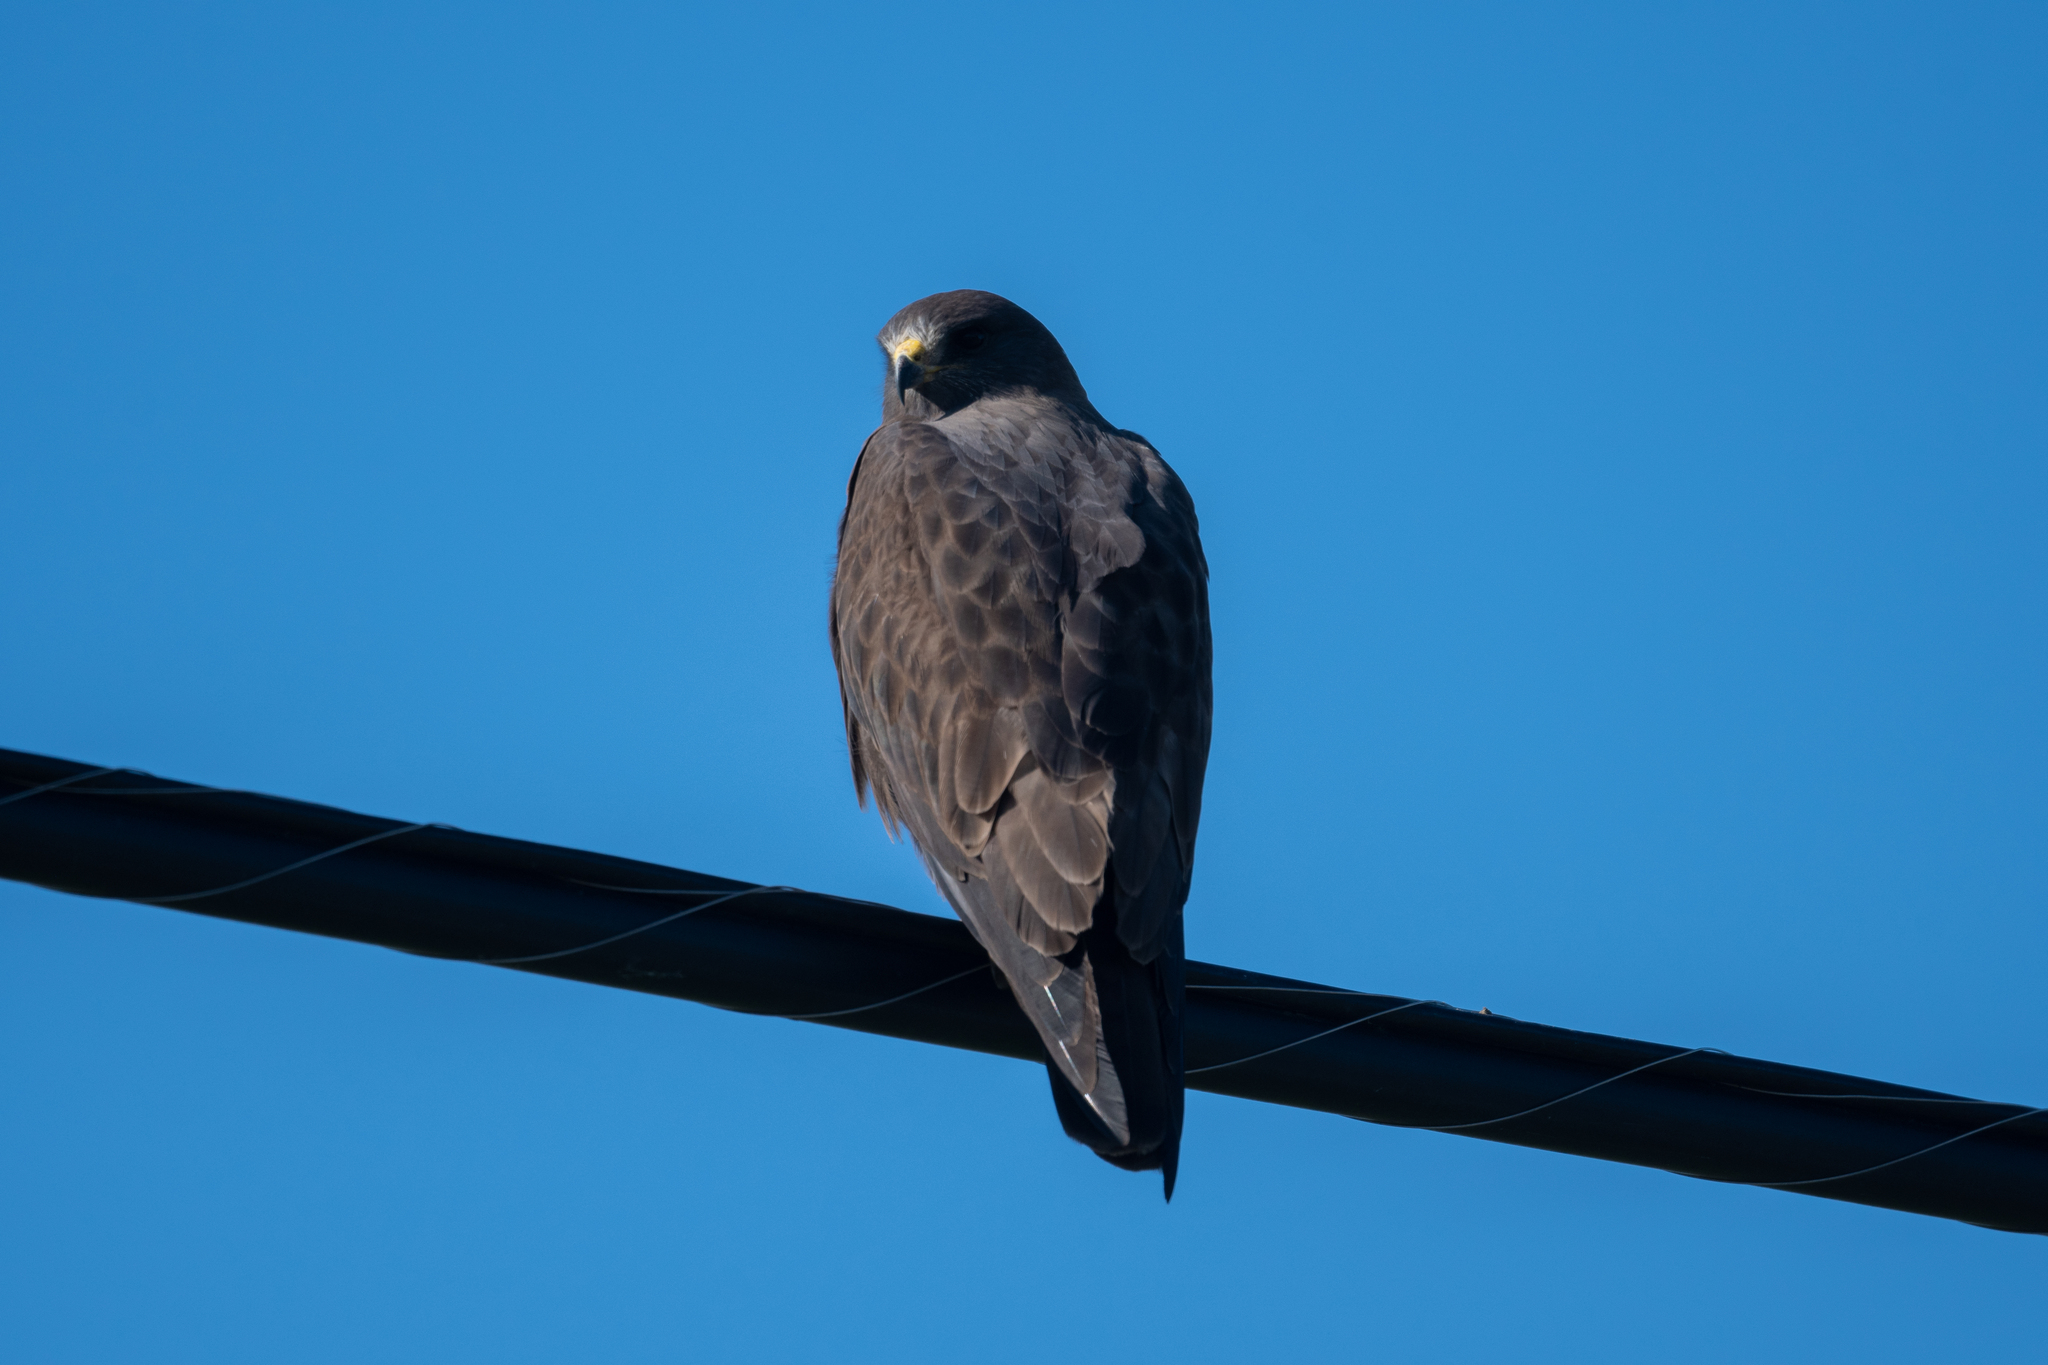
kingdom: Animalia
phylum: Chordata
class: Aves
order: Accipitriformes
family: Accipitridae
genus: Buteo
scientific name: Buteo swainsoni
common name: Swainson's hawk
